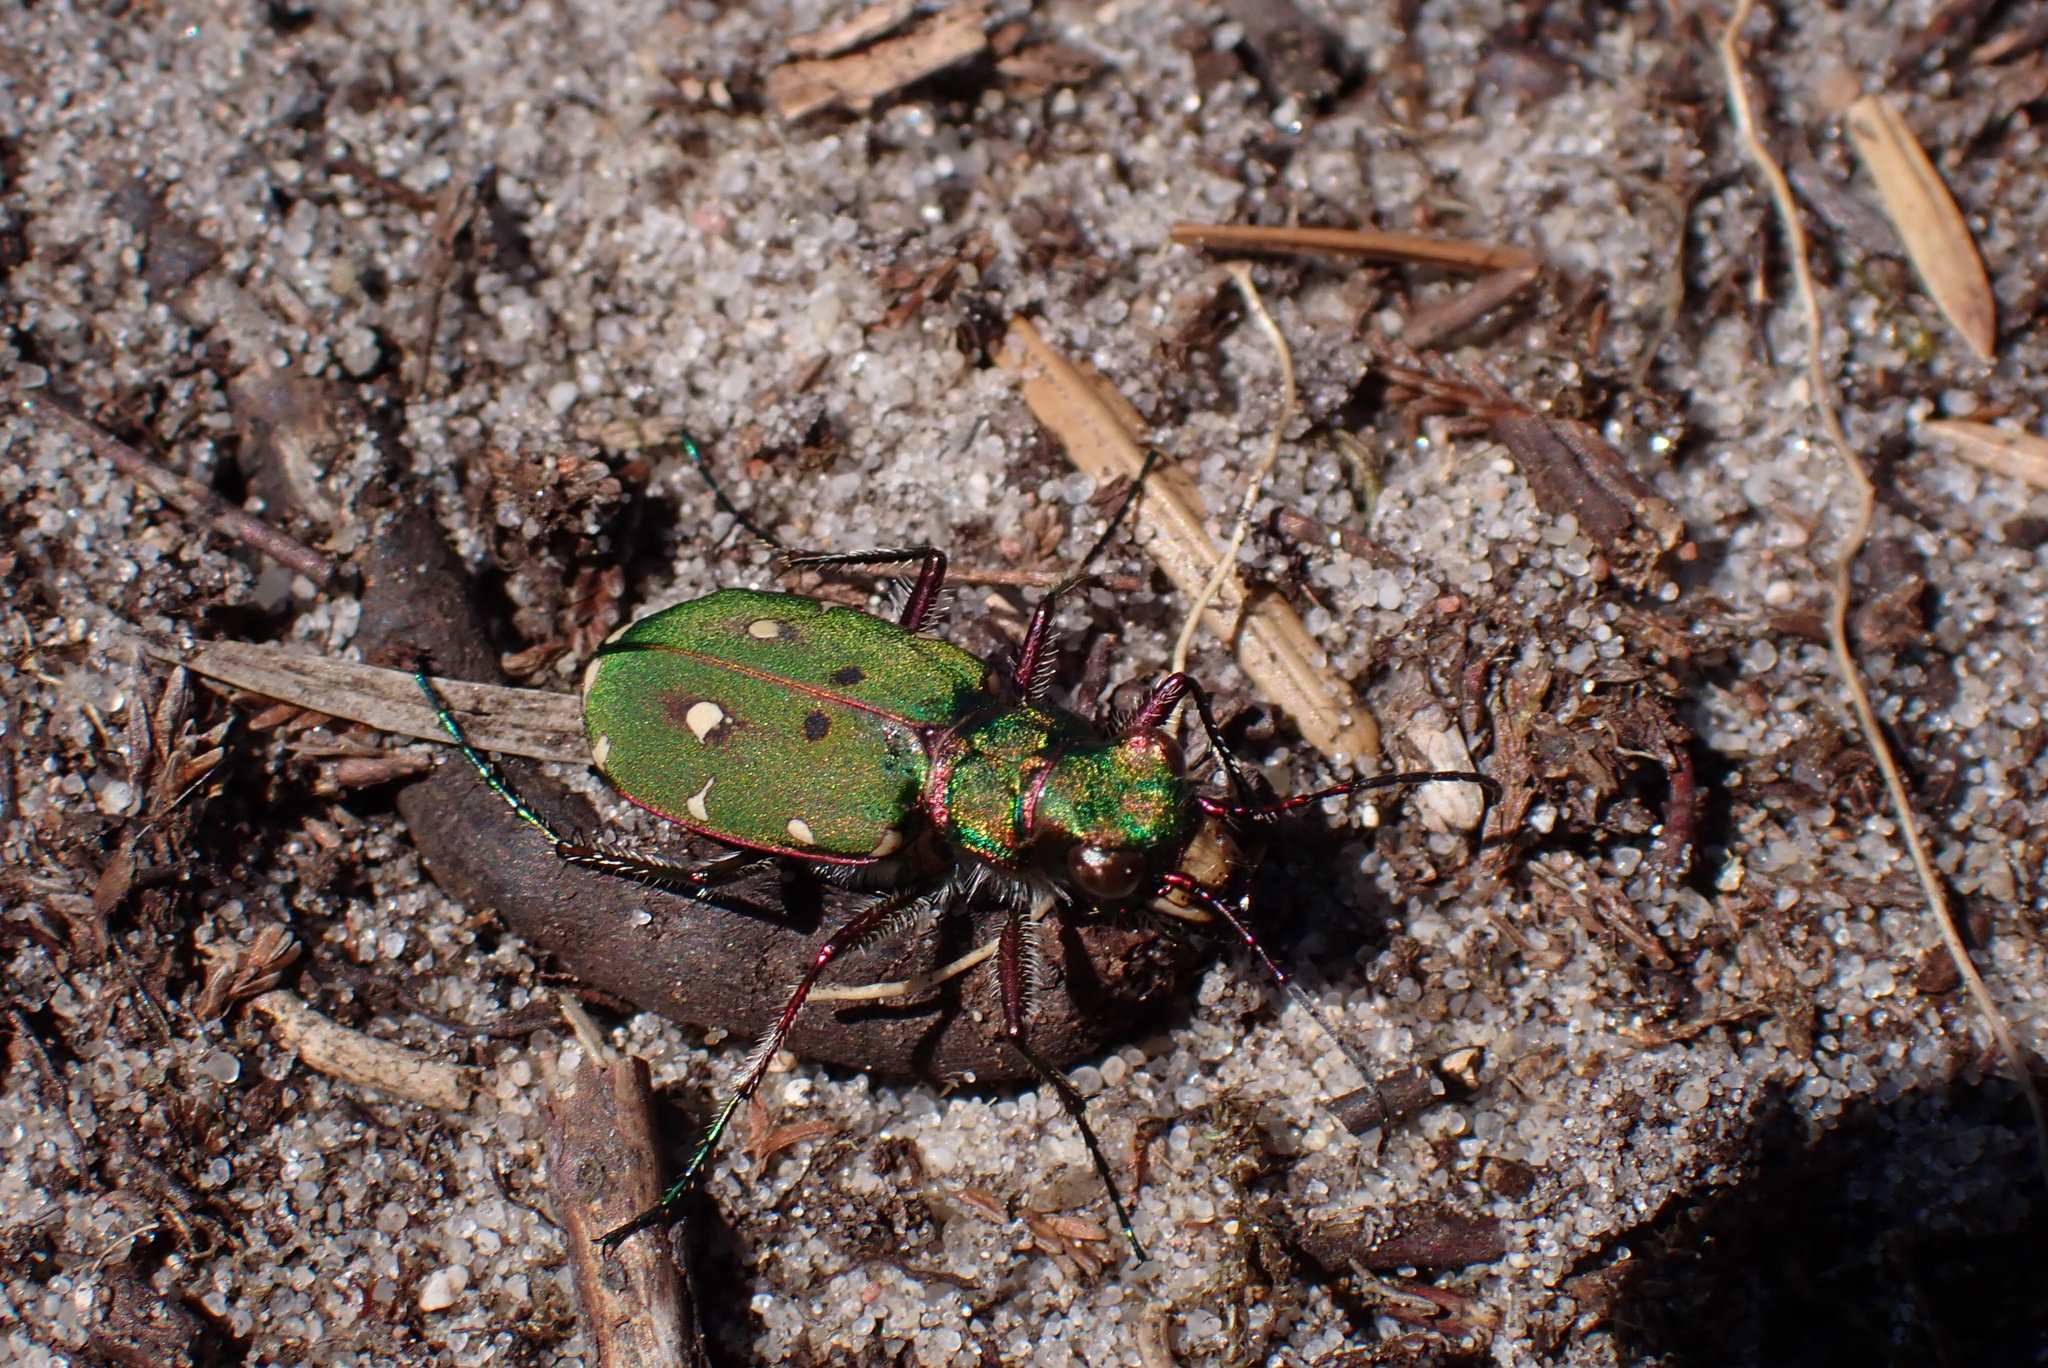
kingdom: Animalia
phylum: Arthropoda
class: Insecta
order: Coleoptera
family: Carabidae
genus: Cicindela
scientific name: Cicindela campestris
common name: Common tiger beetle
